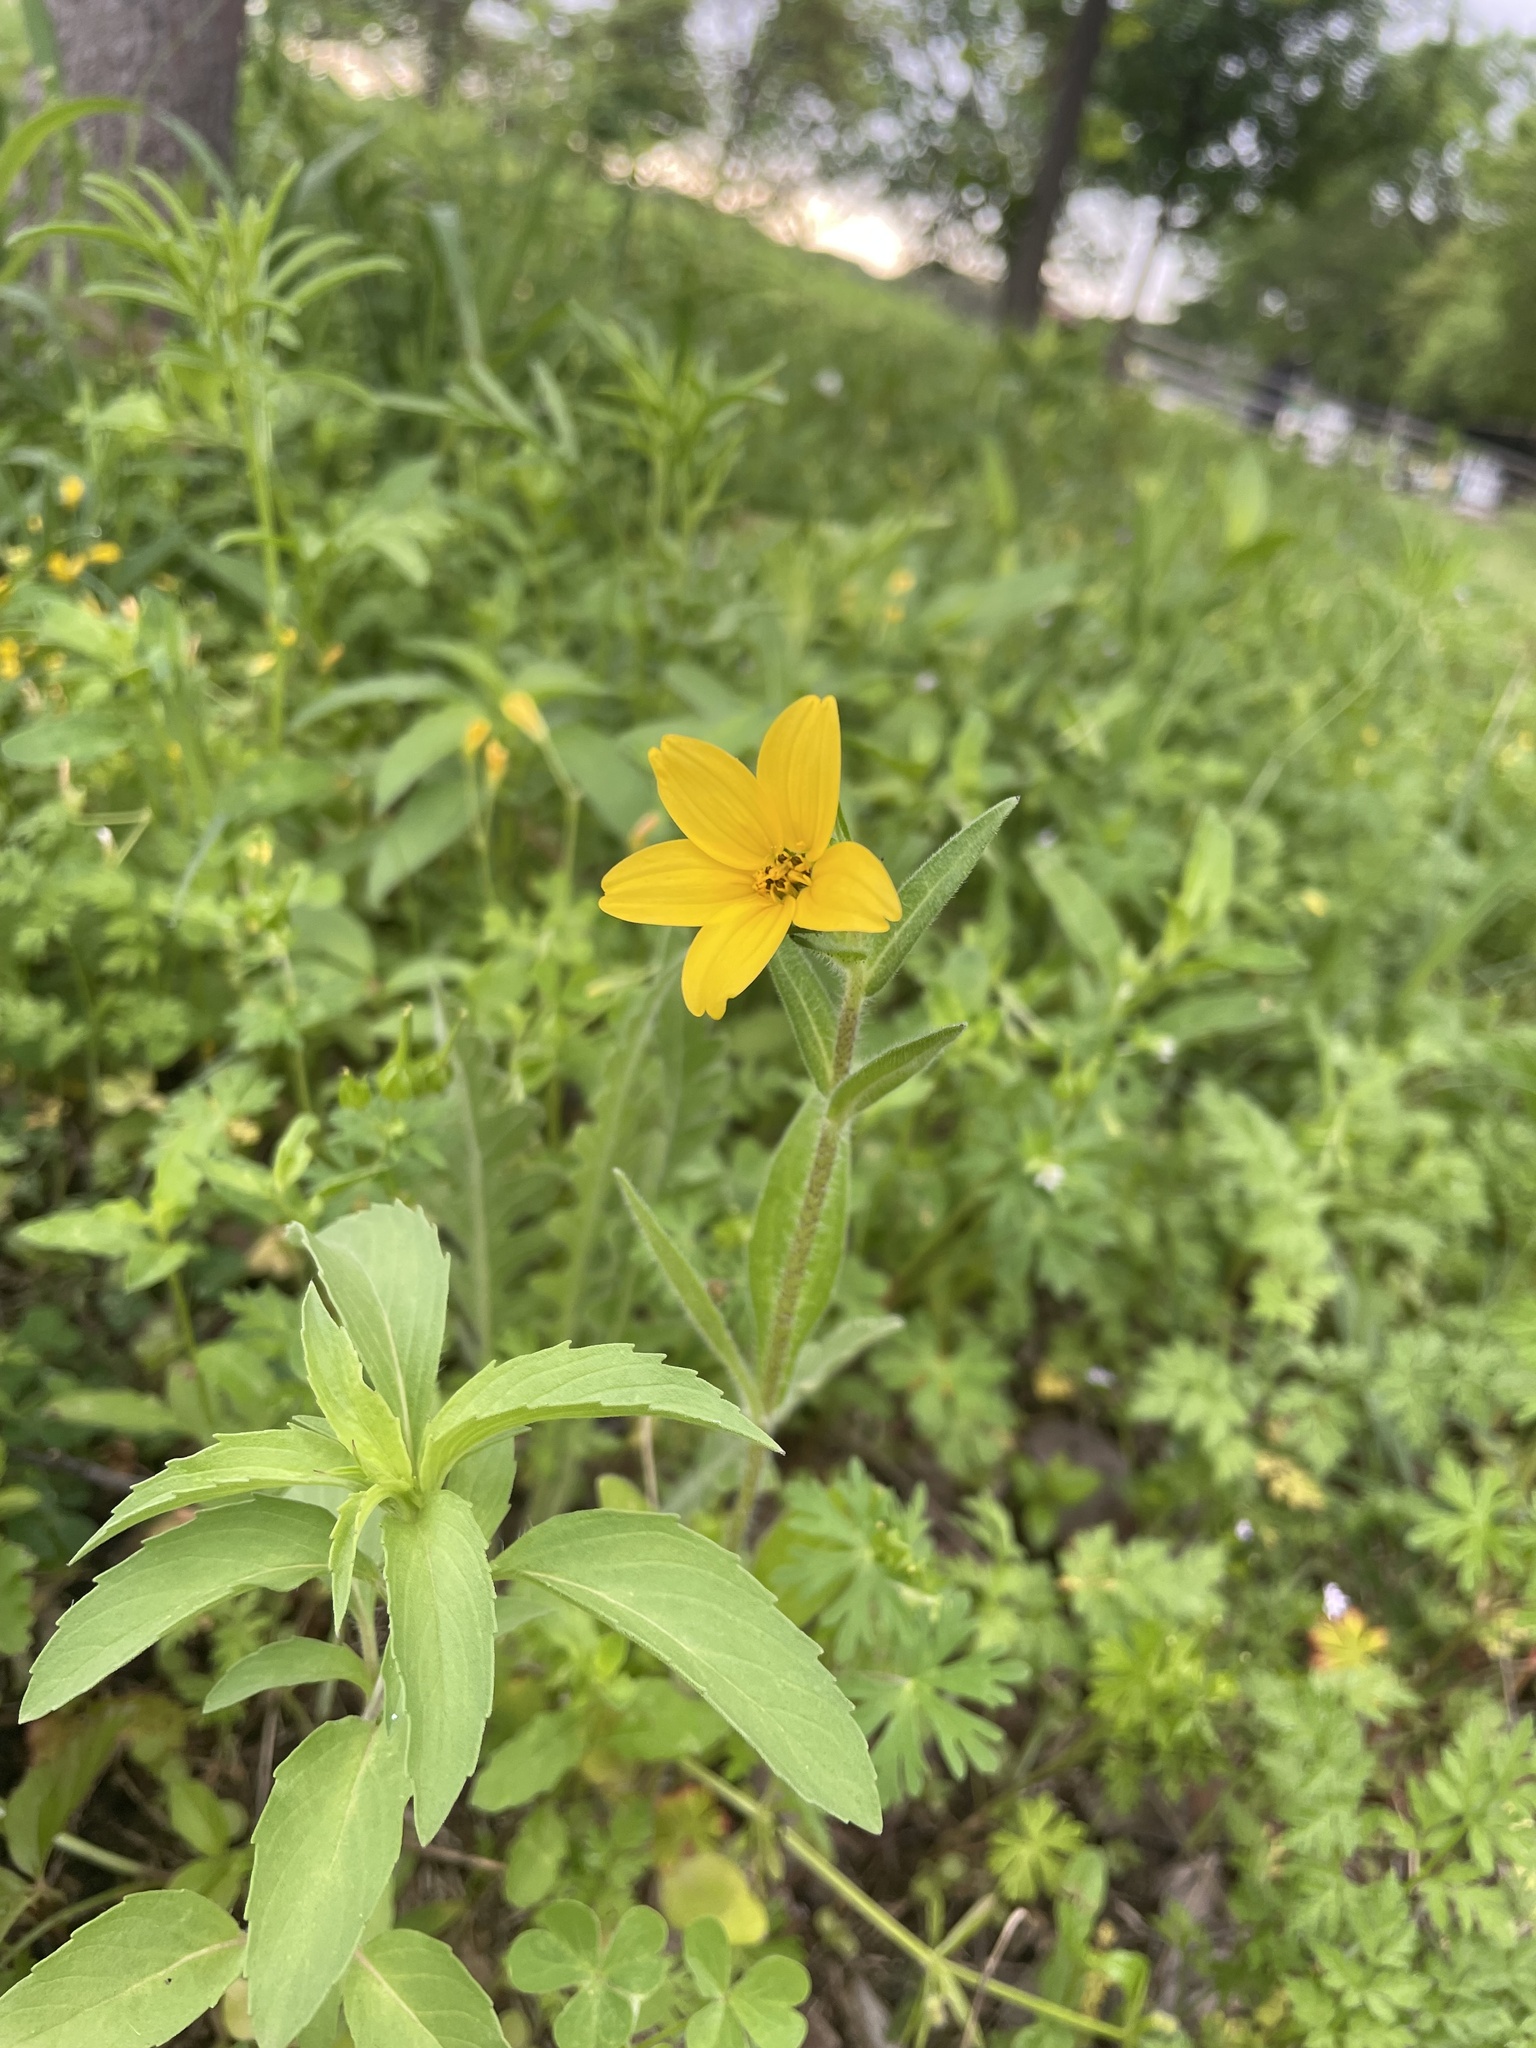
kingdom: Plantae
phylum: Tracheophyta
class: Magnoliopsida
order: Asterales
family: Asteraceae
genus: Lindheimera
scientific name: Lindheimera texana
